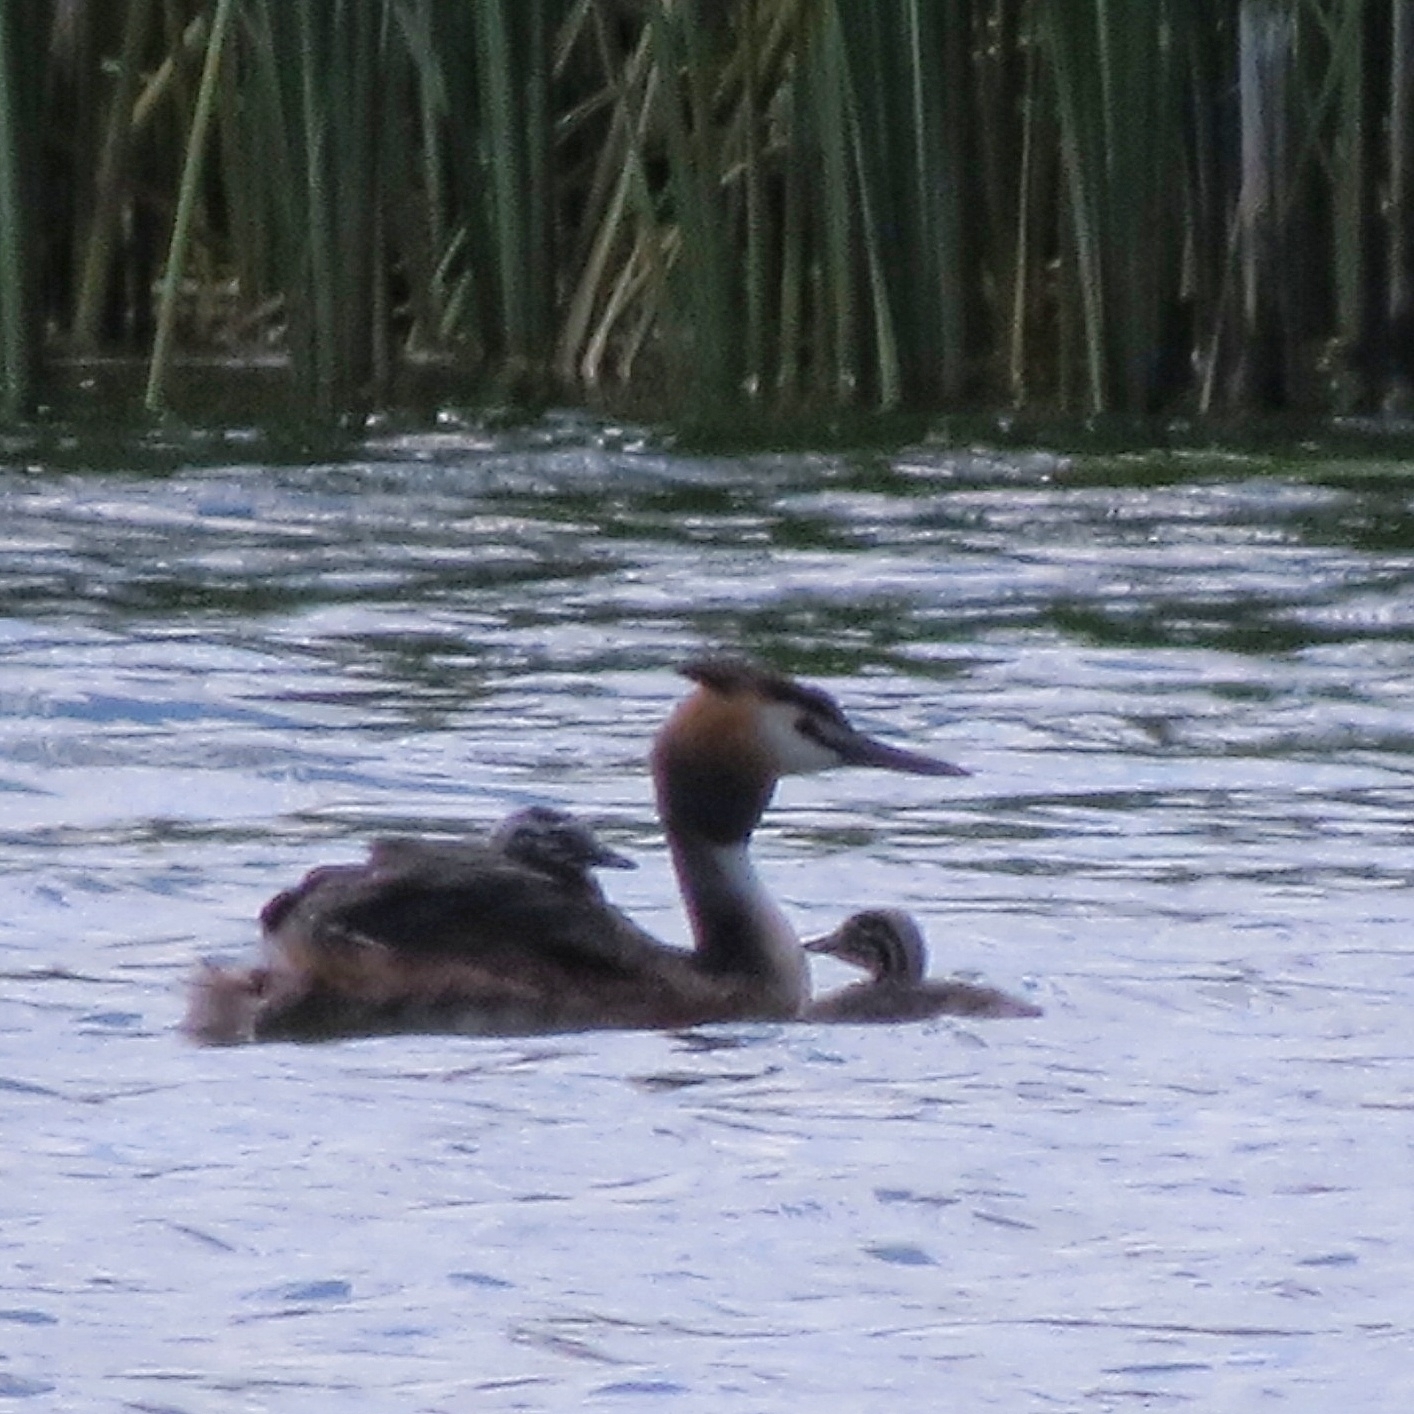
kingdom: Animalia
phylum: Chordata
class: Aves
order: Podicipediformes
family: Podicipedidae
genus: Podiceps
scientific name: Podiceps cristatus
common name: Great crested grebe
